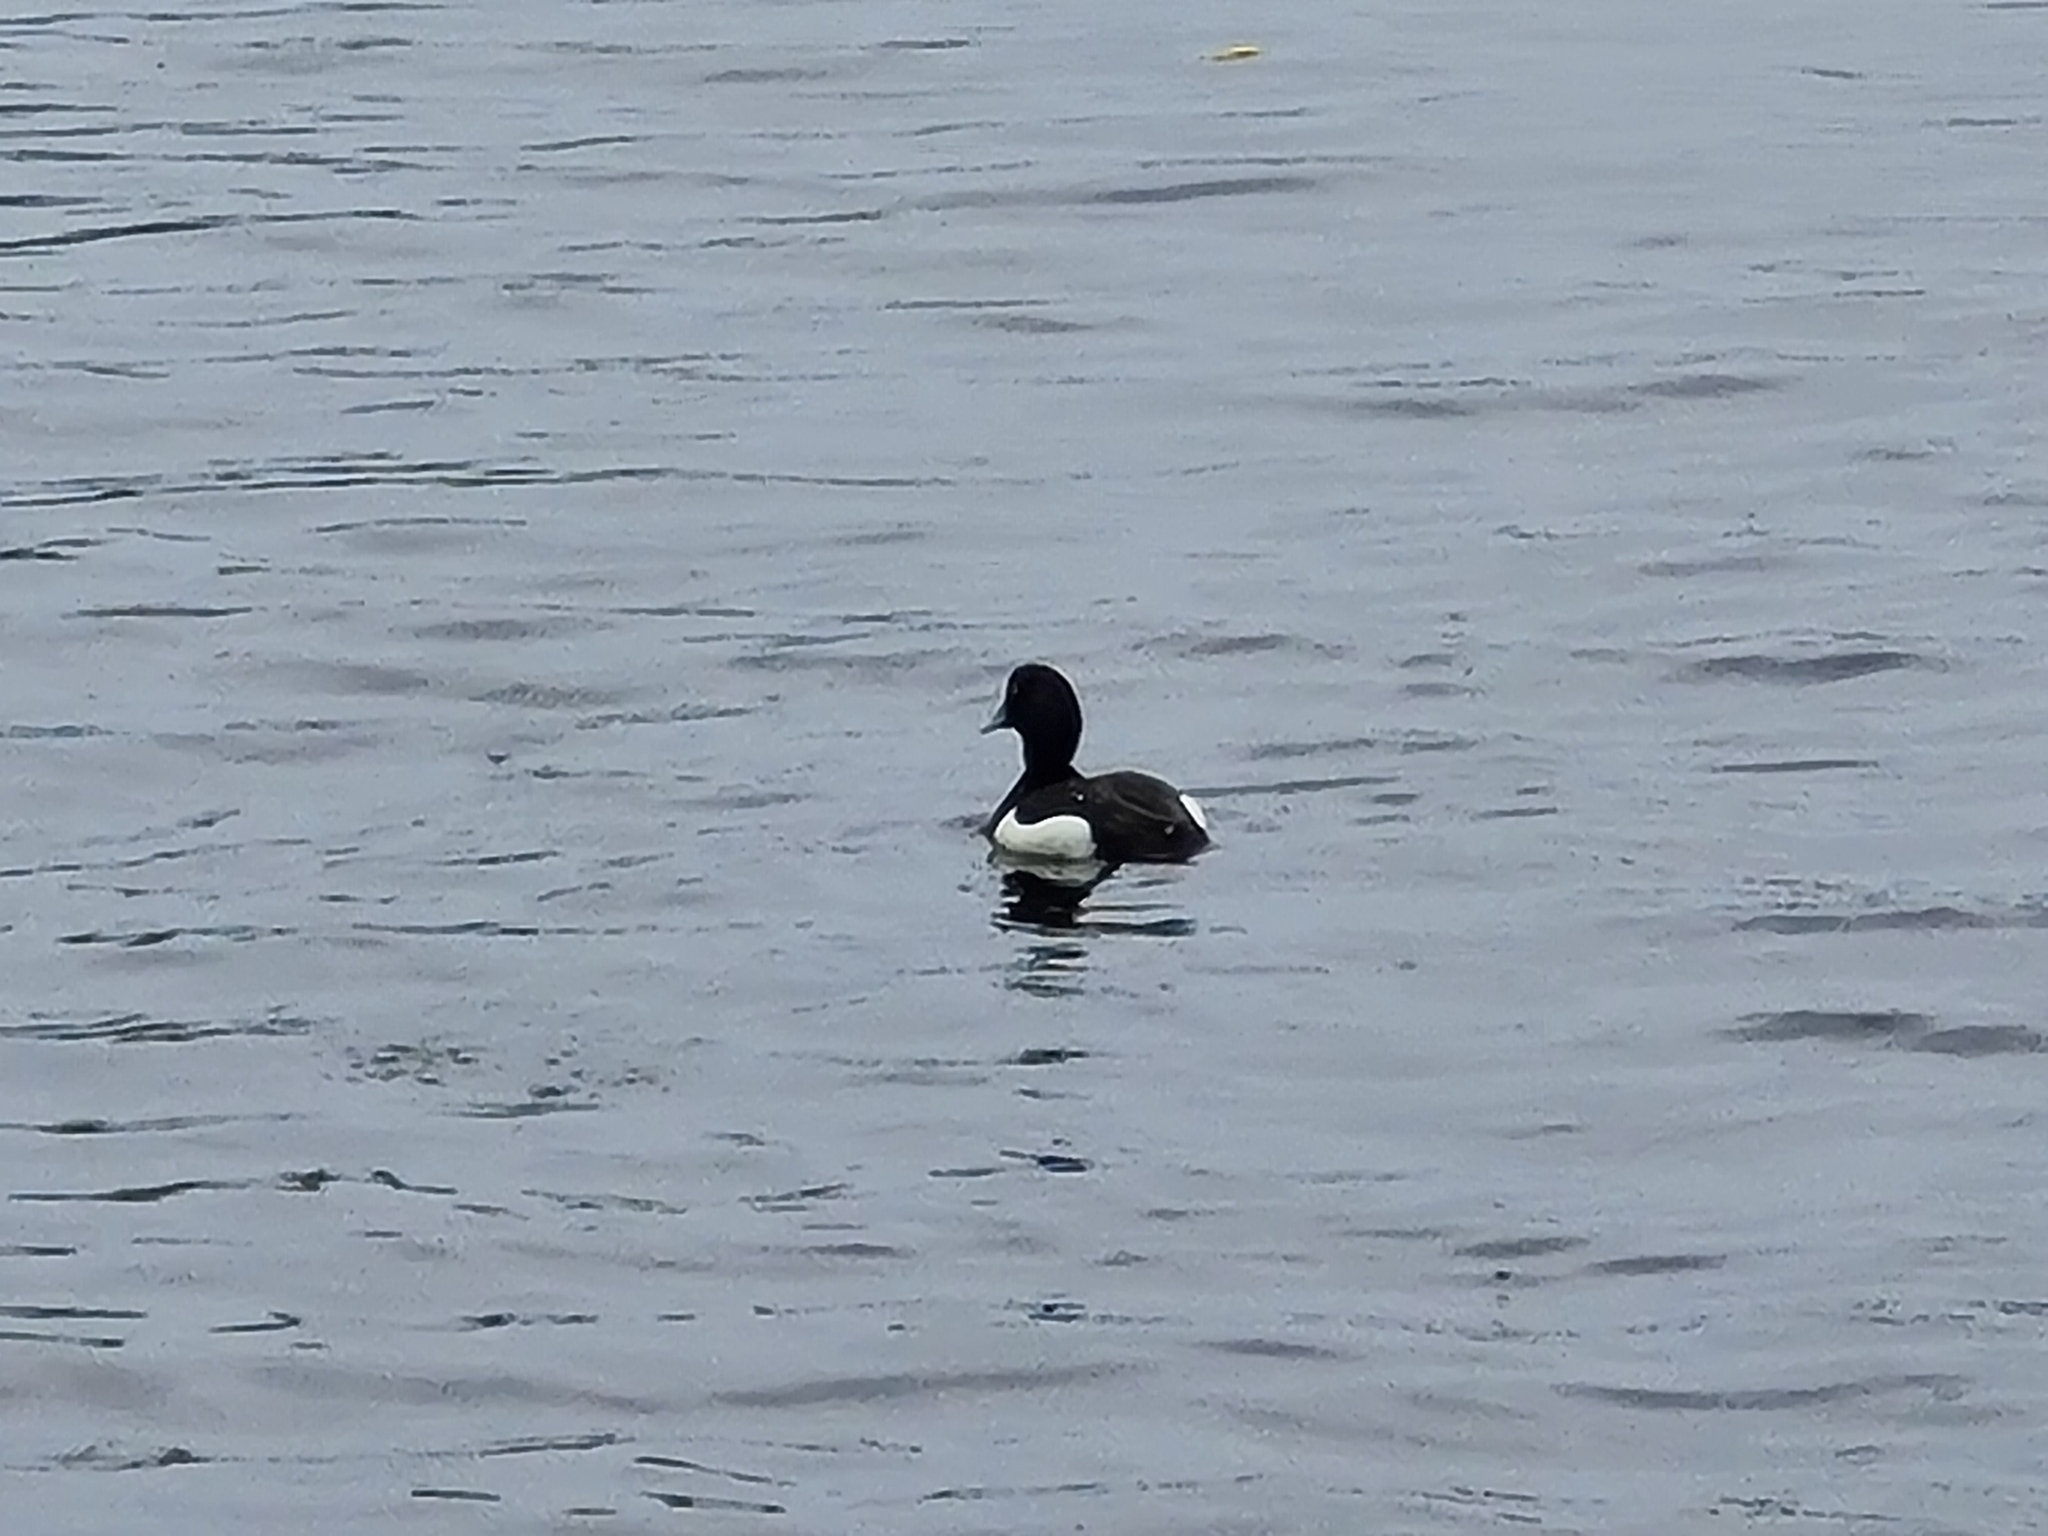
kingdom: Animalia
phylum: Chordata
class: Aves
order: Anseriformes
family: Anatidae
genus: Aythya
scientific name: Aythya fuligula
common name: Tufted duck
